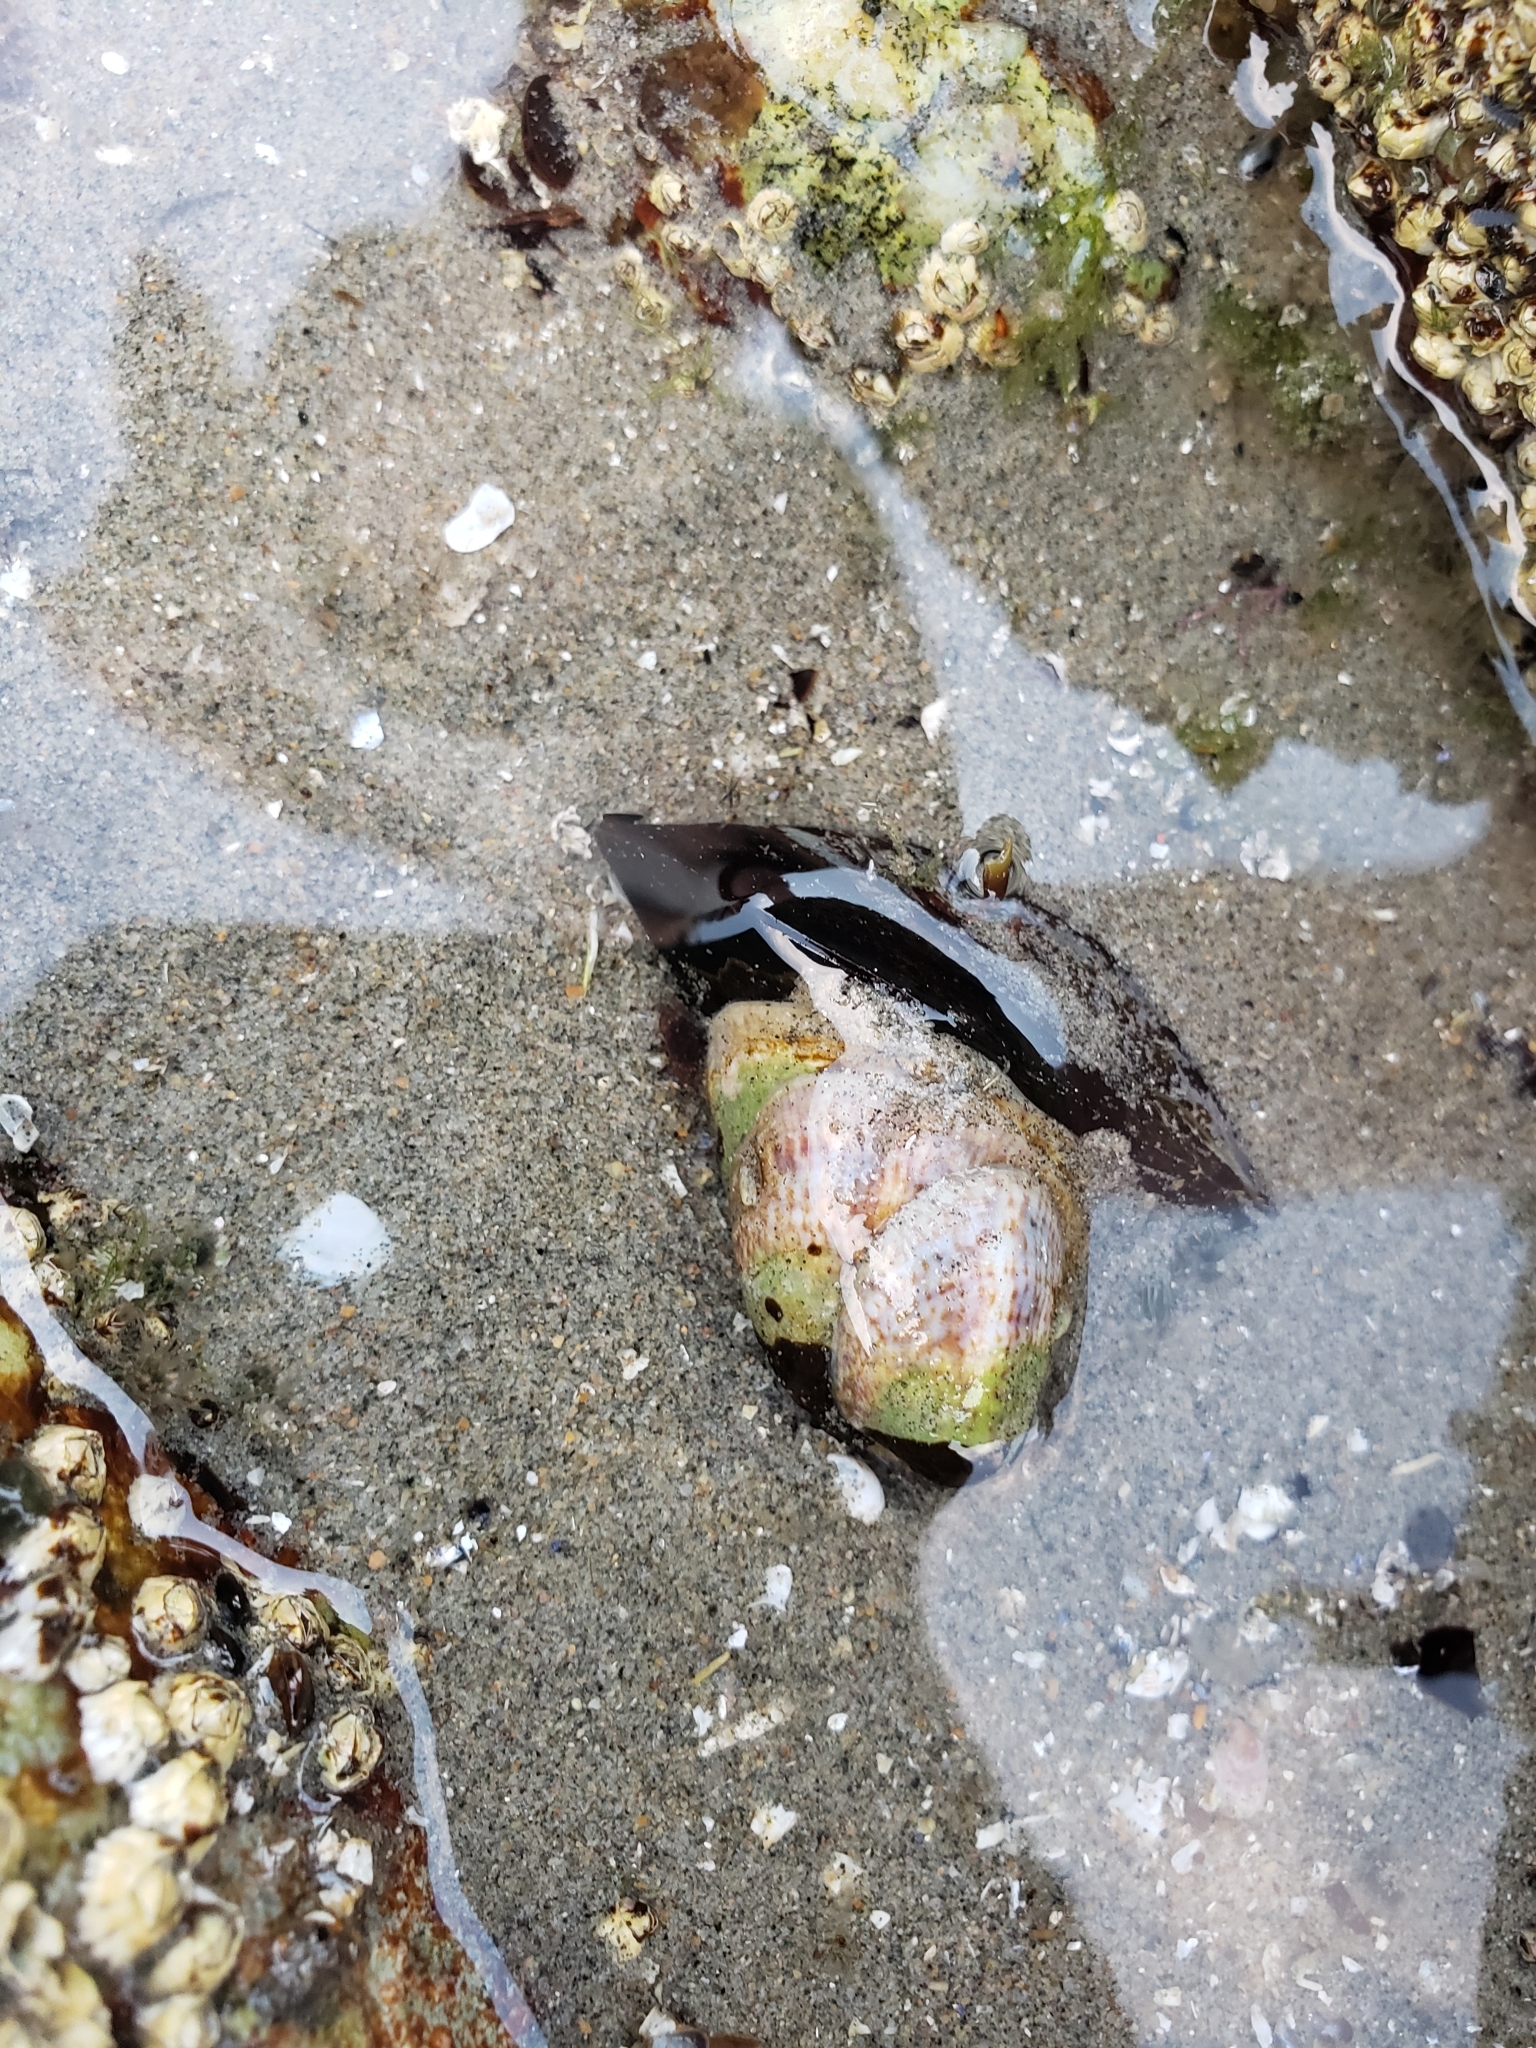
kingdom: Animalia
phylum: Mollusca
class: Gastropoda
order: Littorinimorpha
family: Calyptraeidae
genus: Crepidula
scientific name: Crepidula fornicata
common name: Slipper limpet
